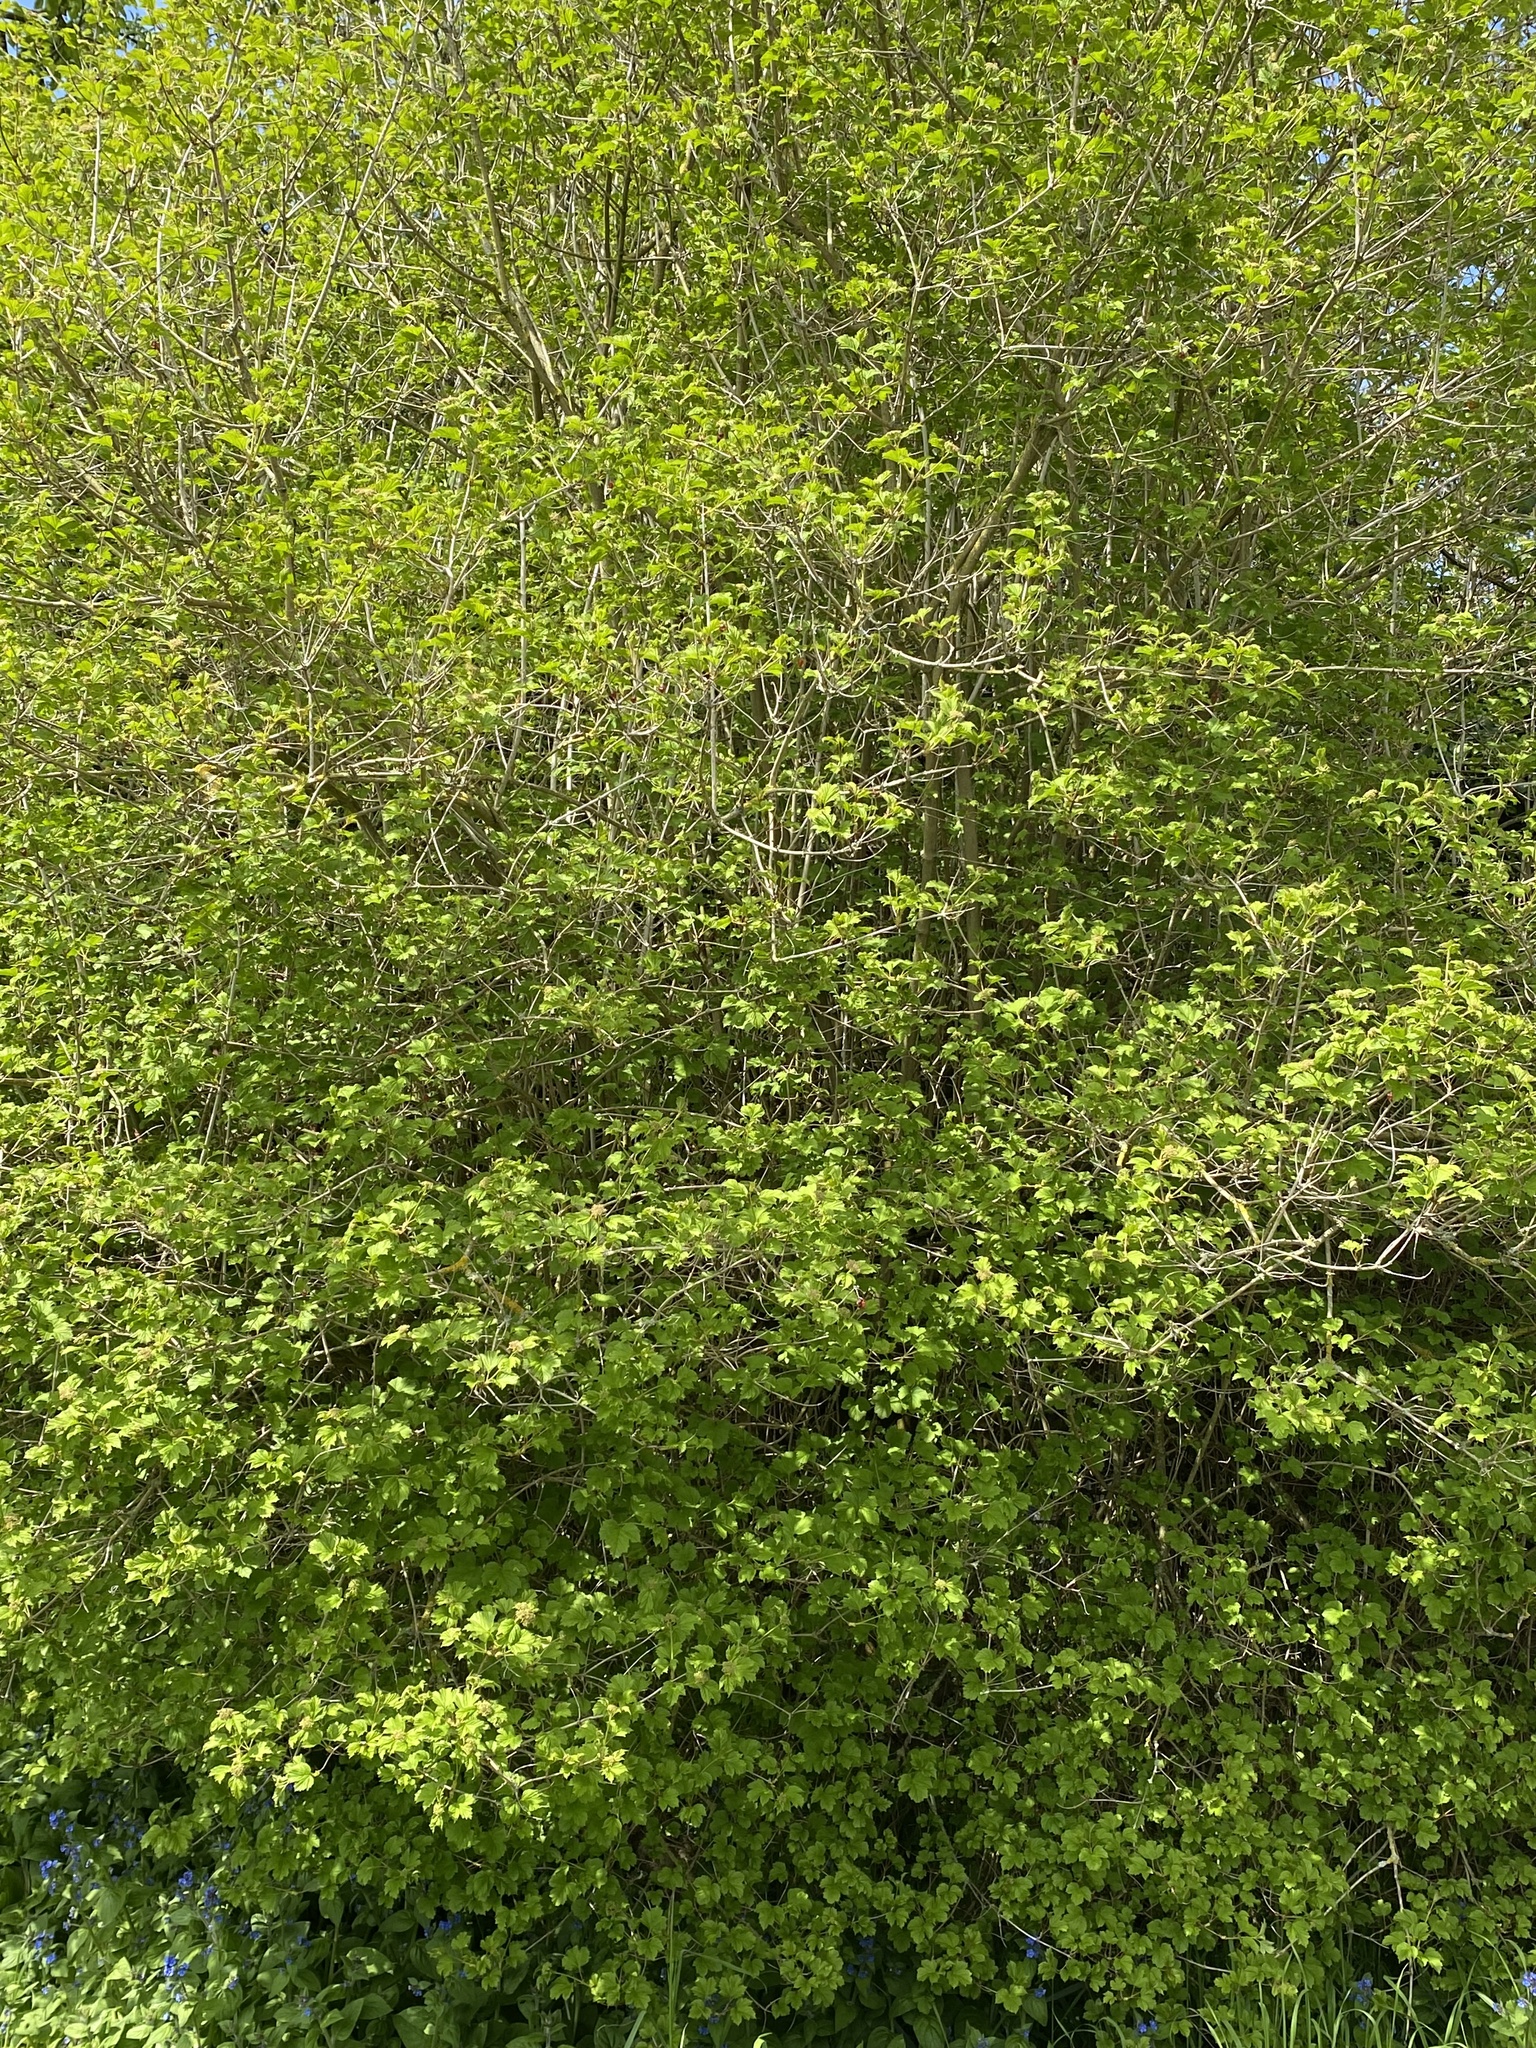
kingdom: Plantae
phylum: Tracheophyta
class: Magnoliopsida
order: Dipsacales
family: Viburnaceae
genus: Viburnum
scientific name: Viburnum opulus
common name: Guelder-rose
